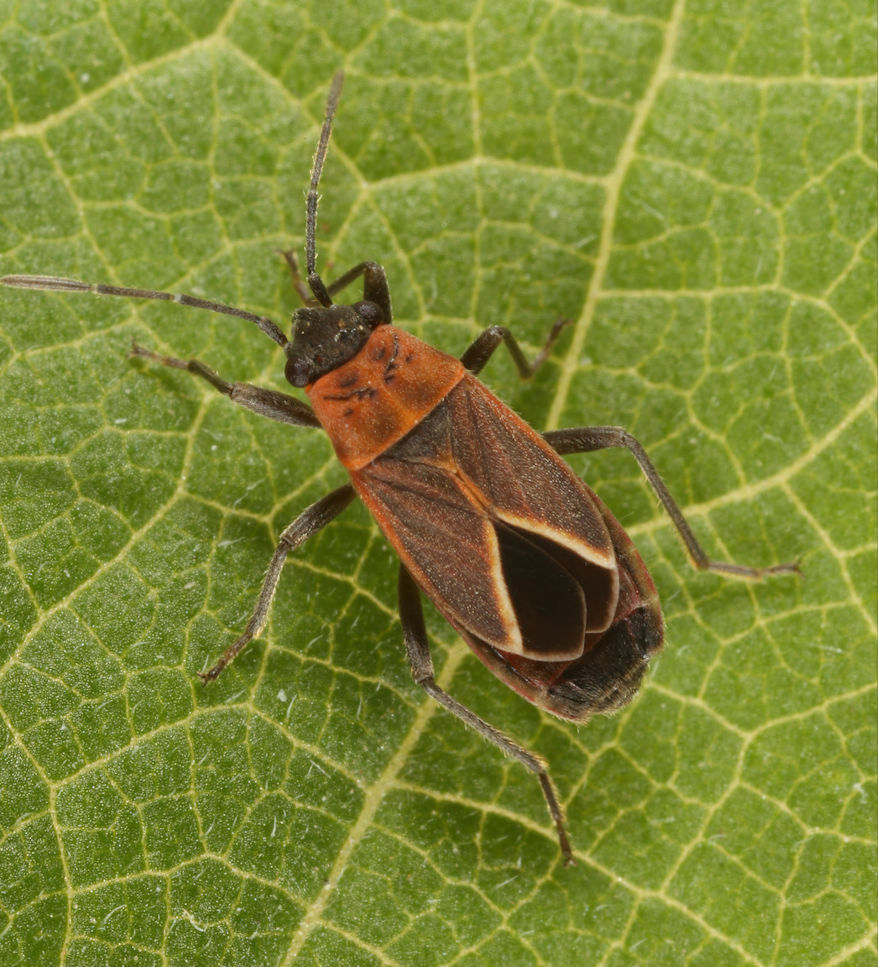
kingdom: Animalia
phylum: Arthropoda
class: Insecta
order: Hemiptera
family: Lygaeidae
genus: Ochrimnus
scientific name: Ochrimnus barberi
